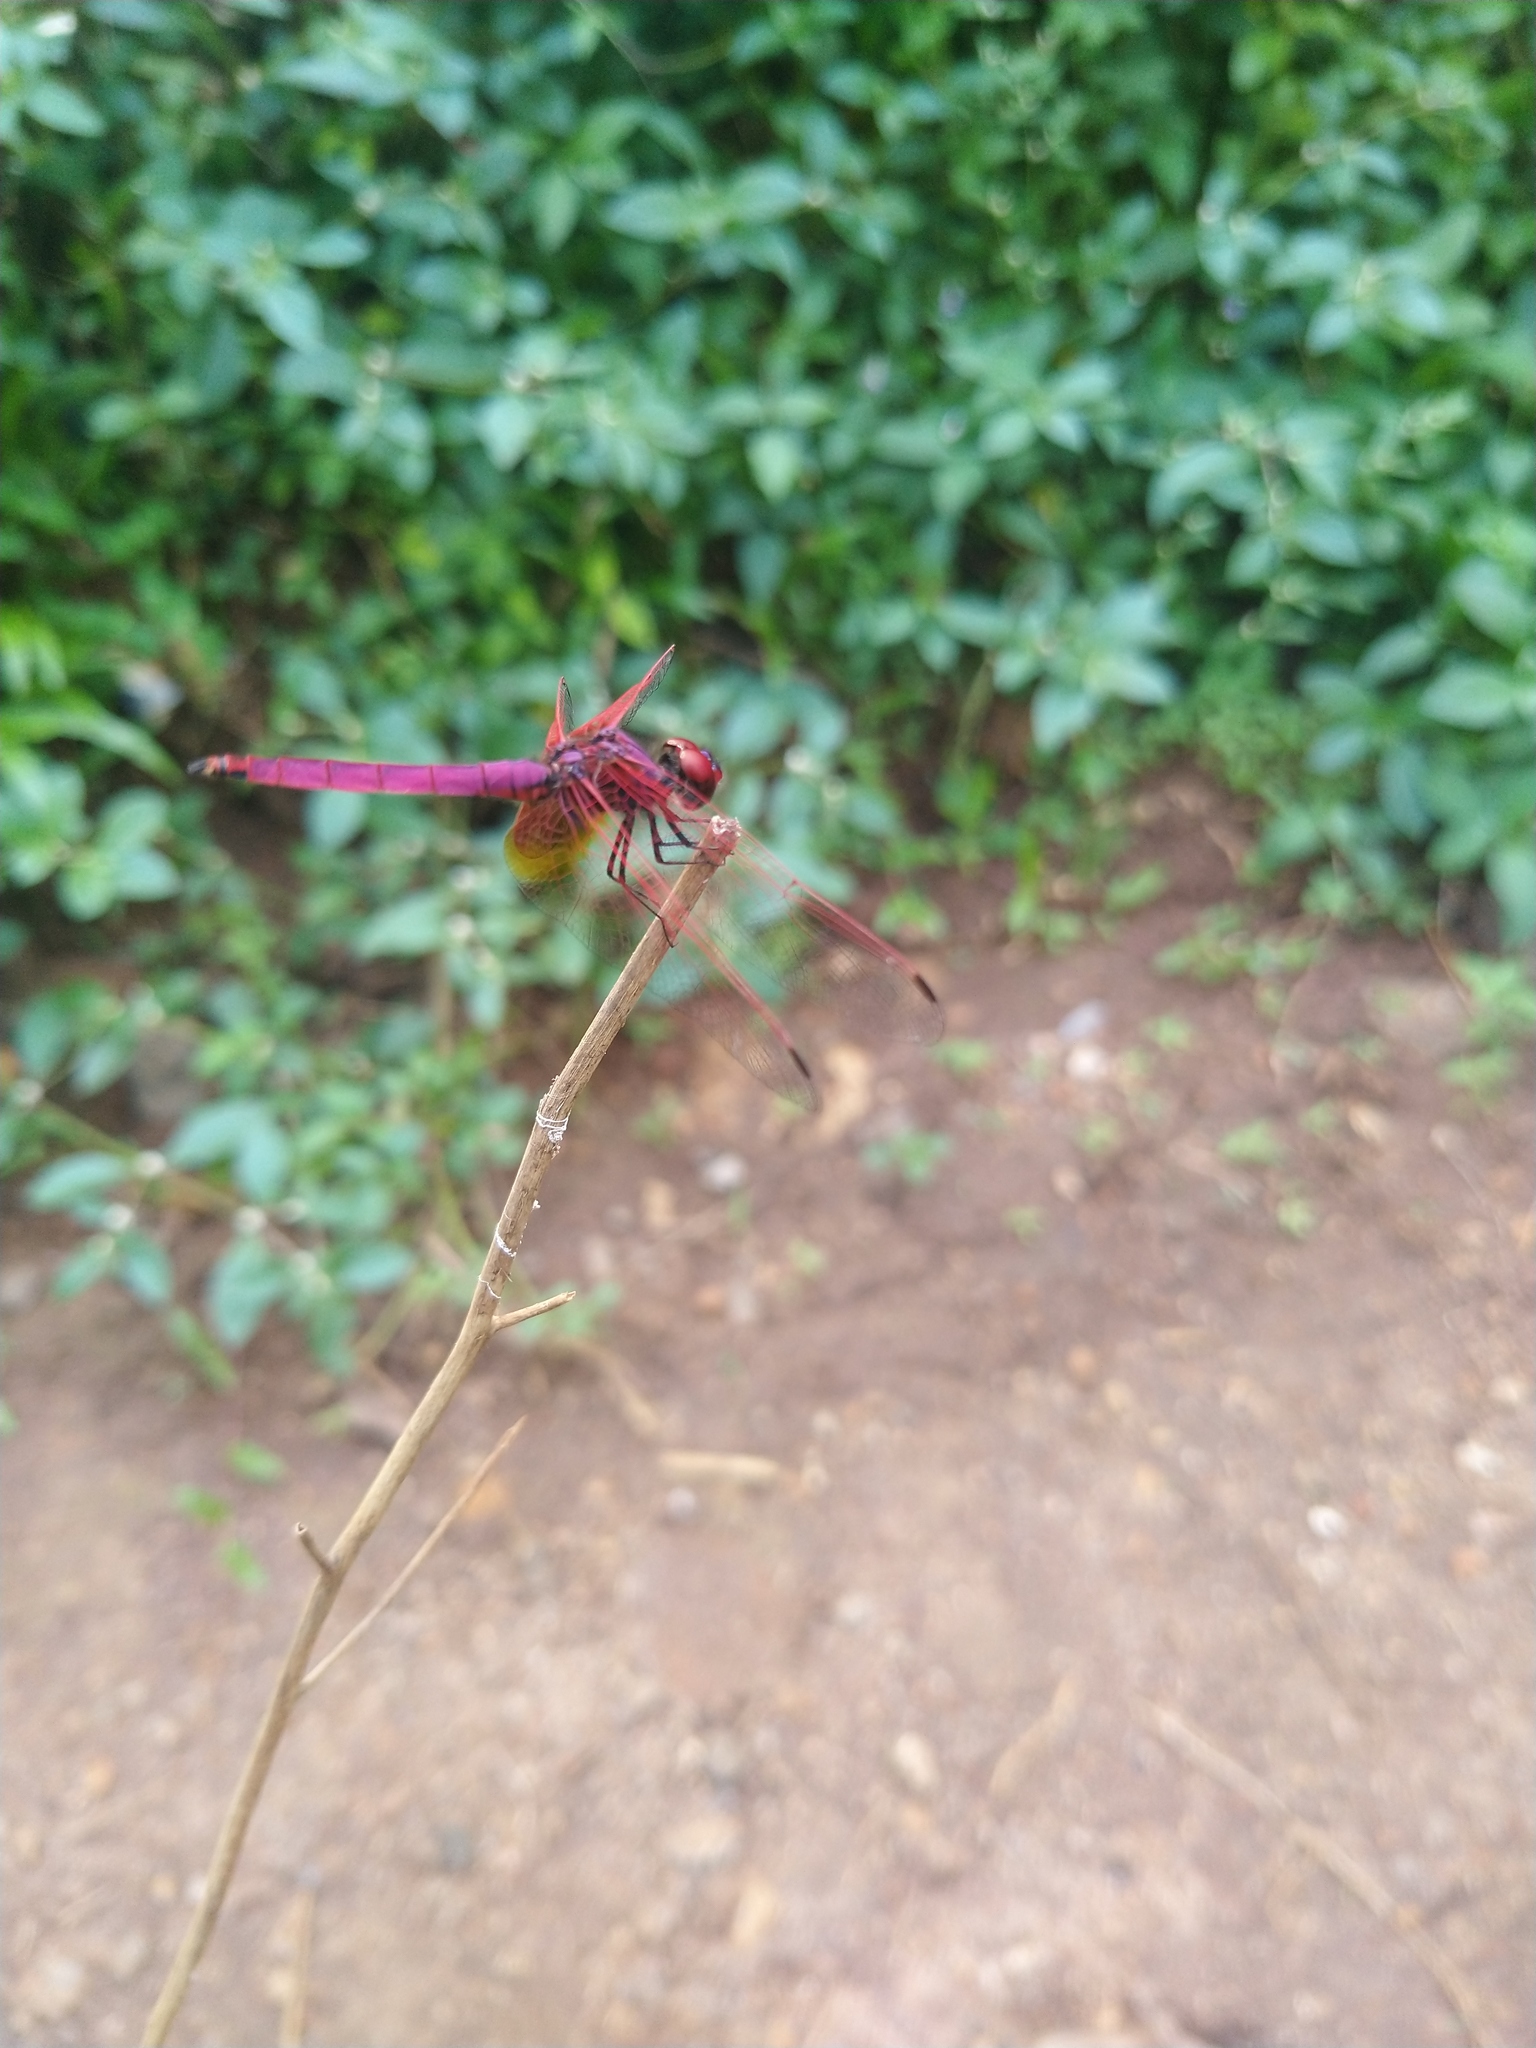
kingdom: Animalia
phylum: Arthropoda
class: Insecta
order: Odonata
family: Libellulidae
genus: Trithemis
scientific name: Trithemis aurora
